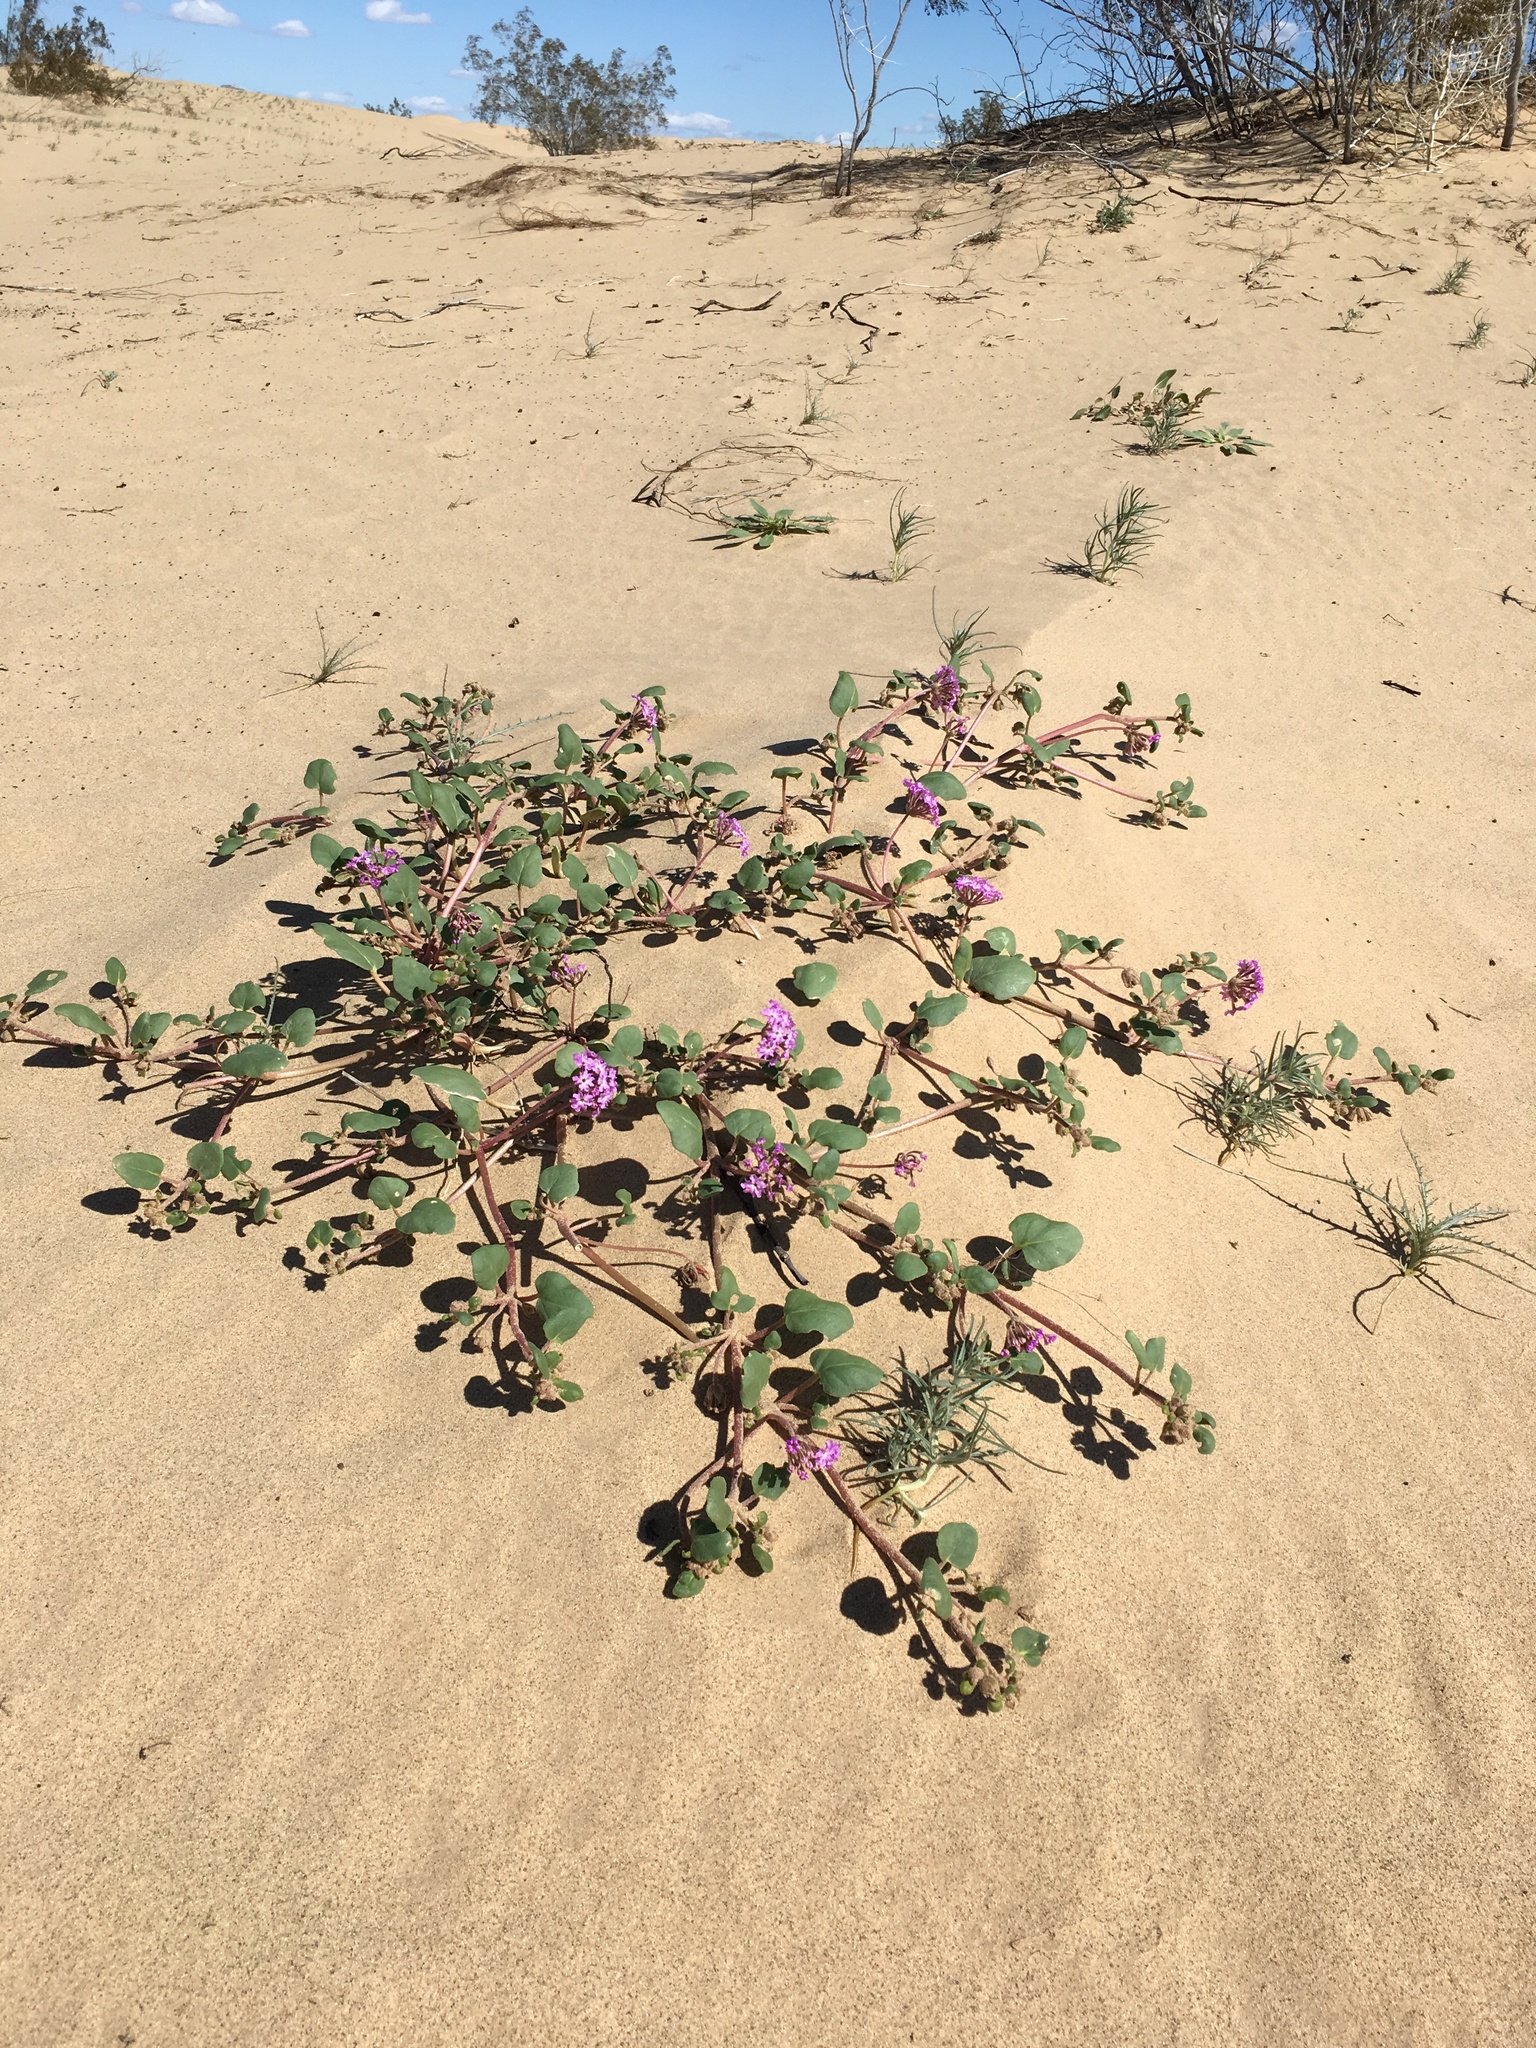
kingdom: Plantae
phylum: Tracheophyta
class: Magnoliopsida
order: Caryophyllales
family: Nyctaginaceae
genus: Abronia
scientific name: Abronia villosa
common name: Desert sand-verbena
